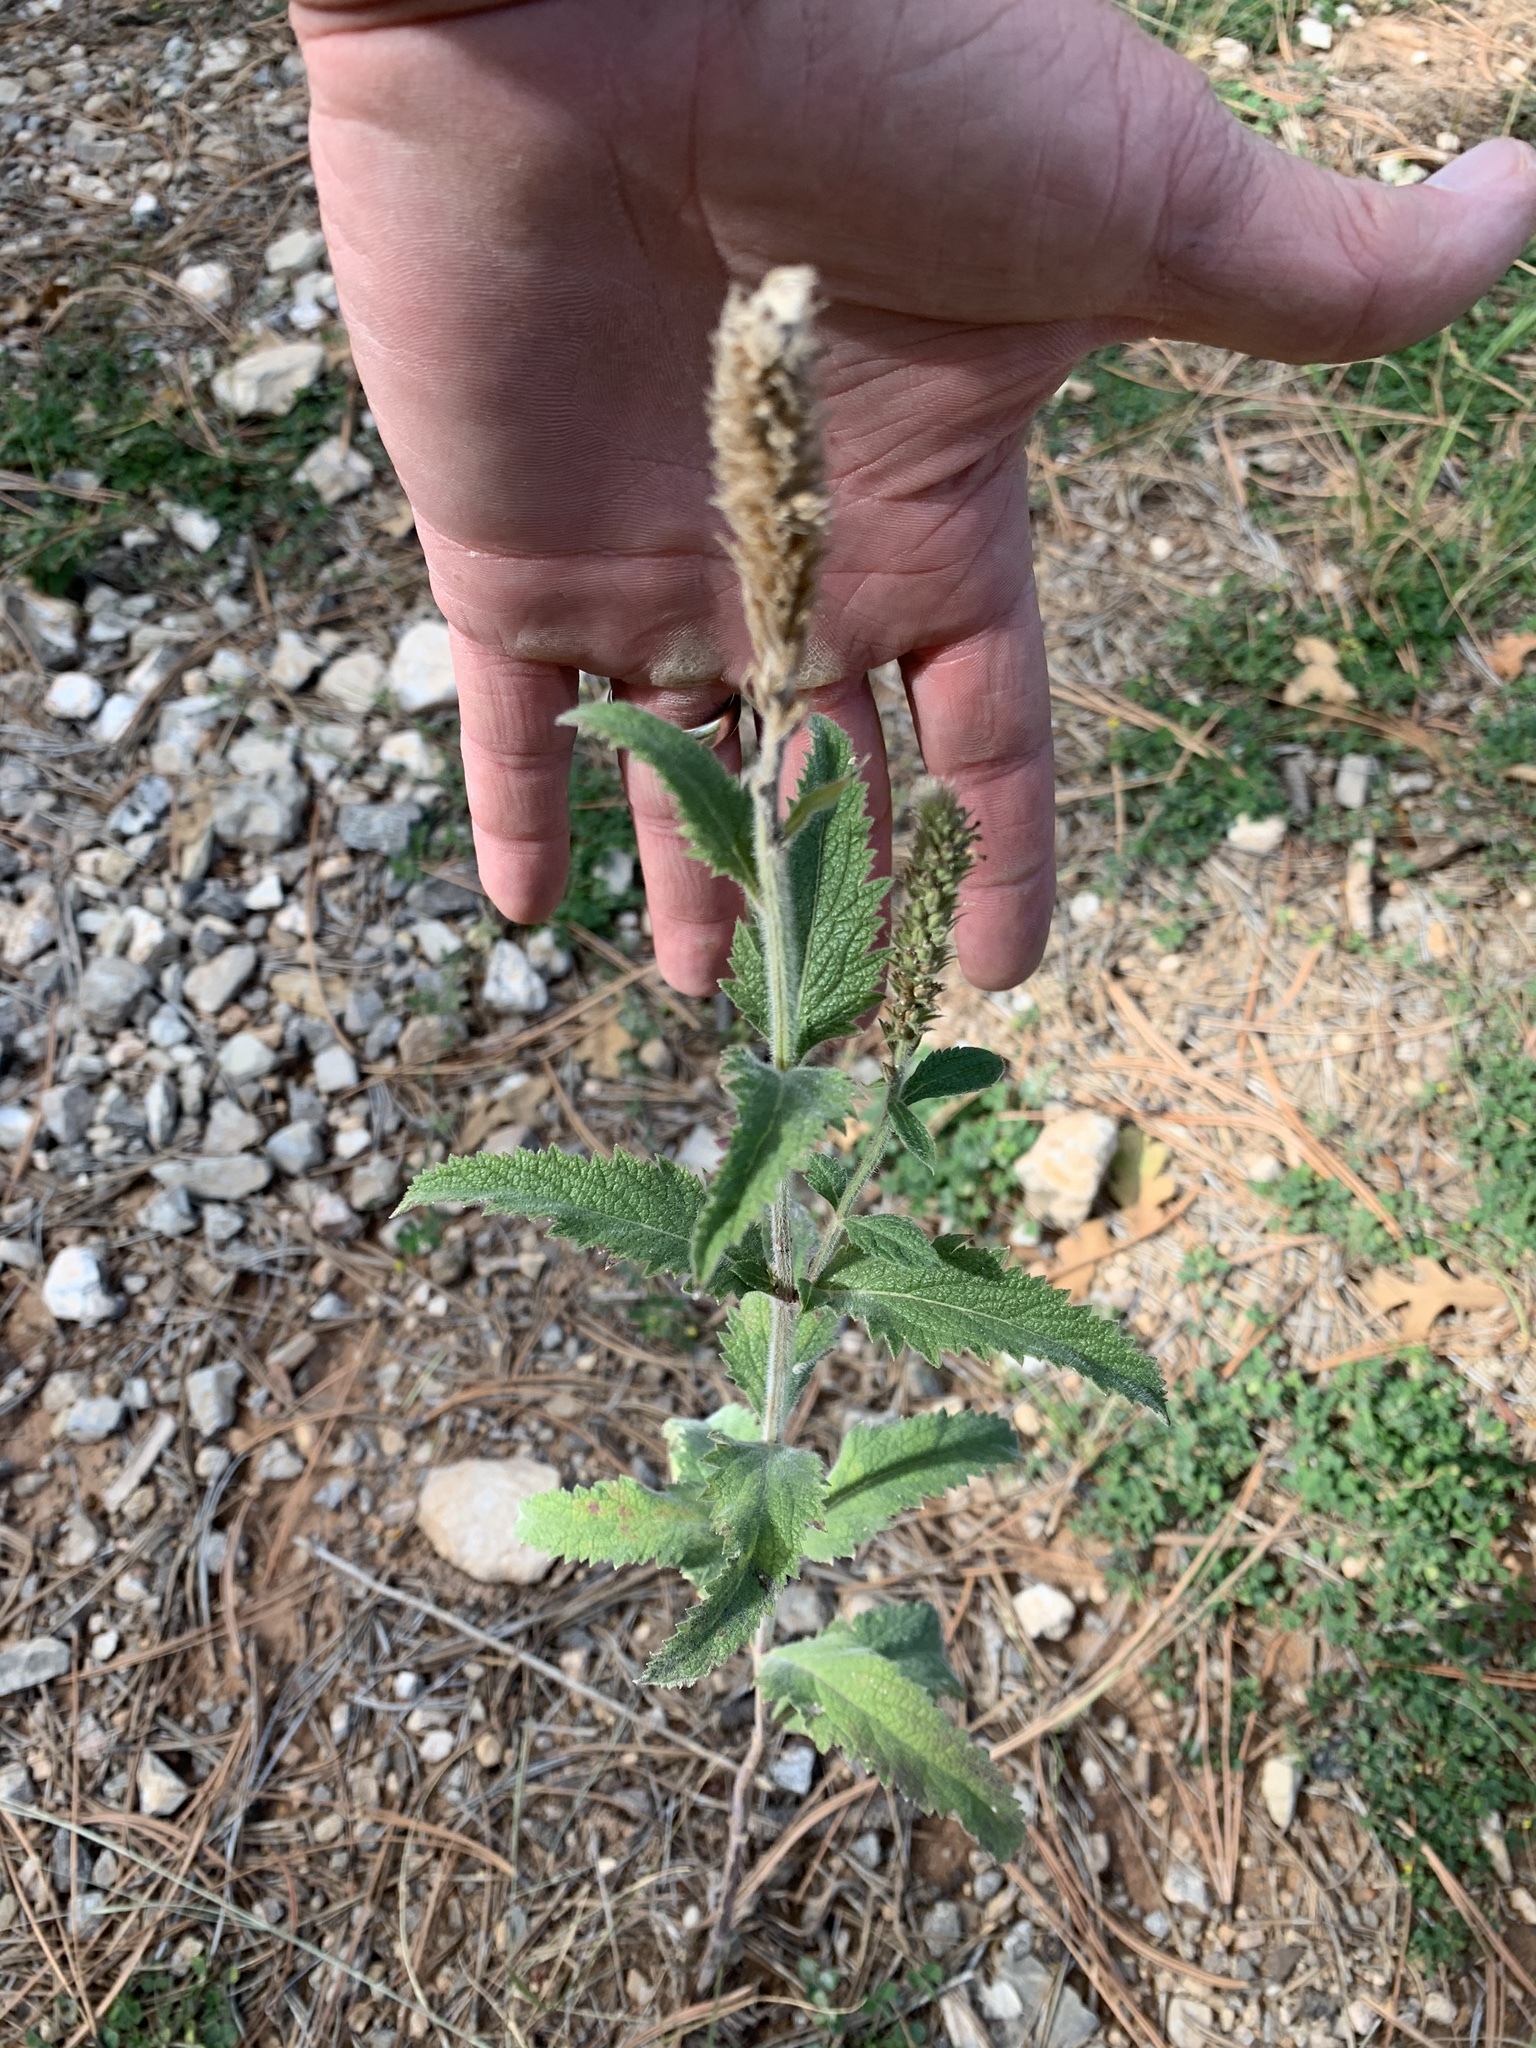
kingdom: Plantae
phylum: Tracheophyta
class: Magnoliopsida
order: Lamiales
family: Verbenaceae
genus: Verbena
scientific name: Verbena macdougalii
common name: New mexico vervain
